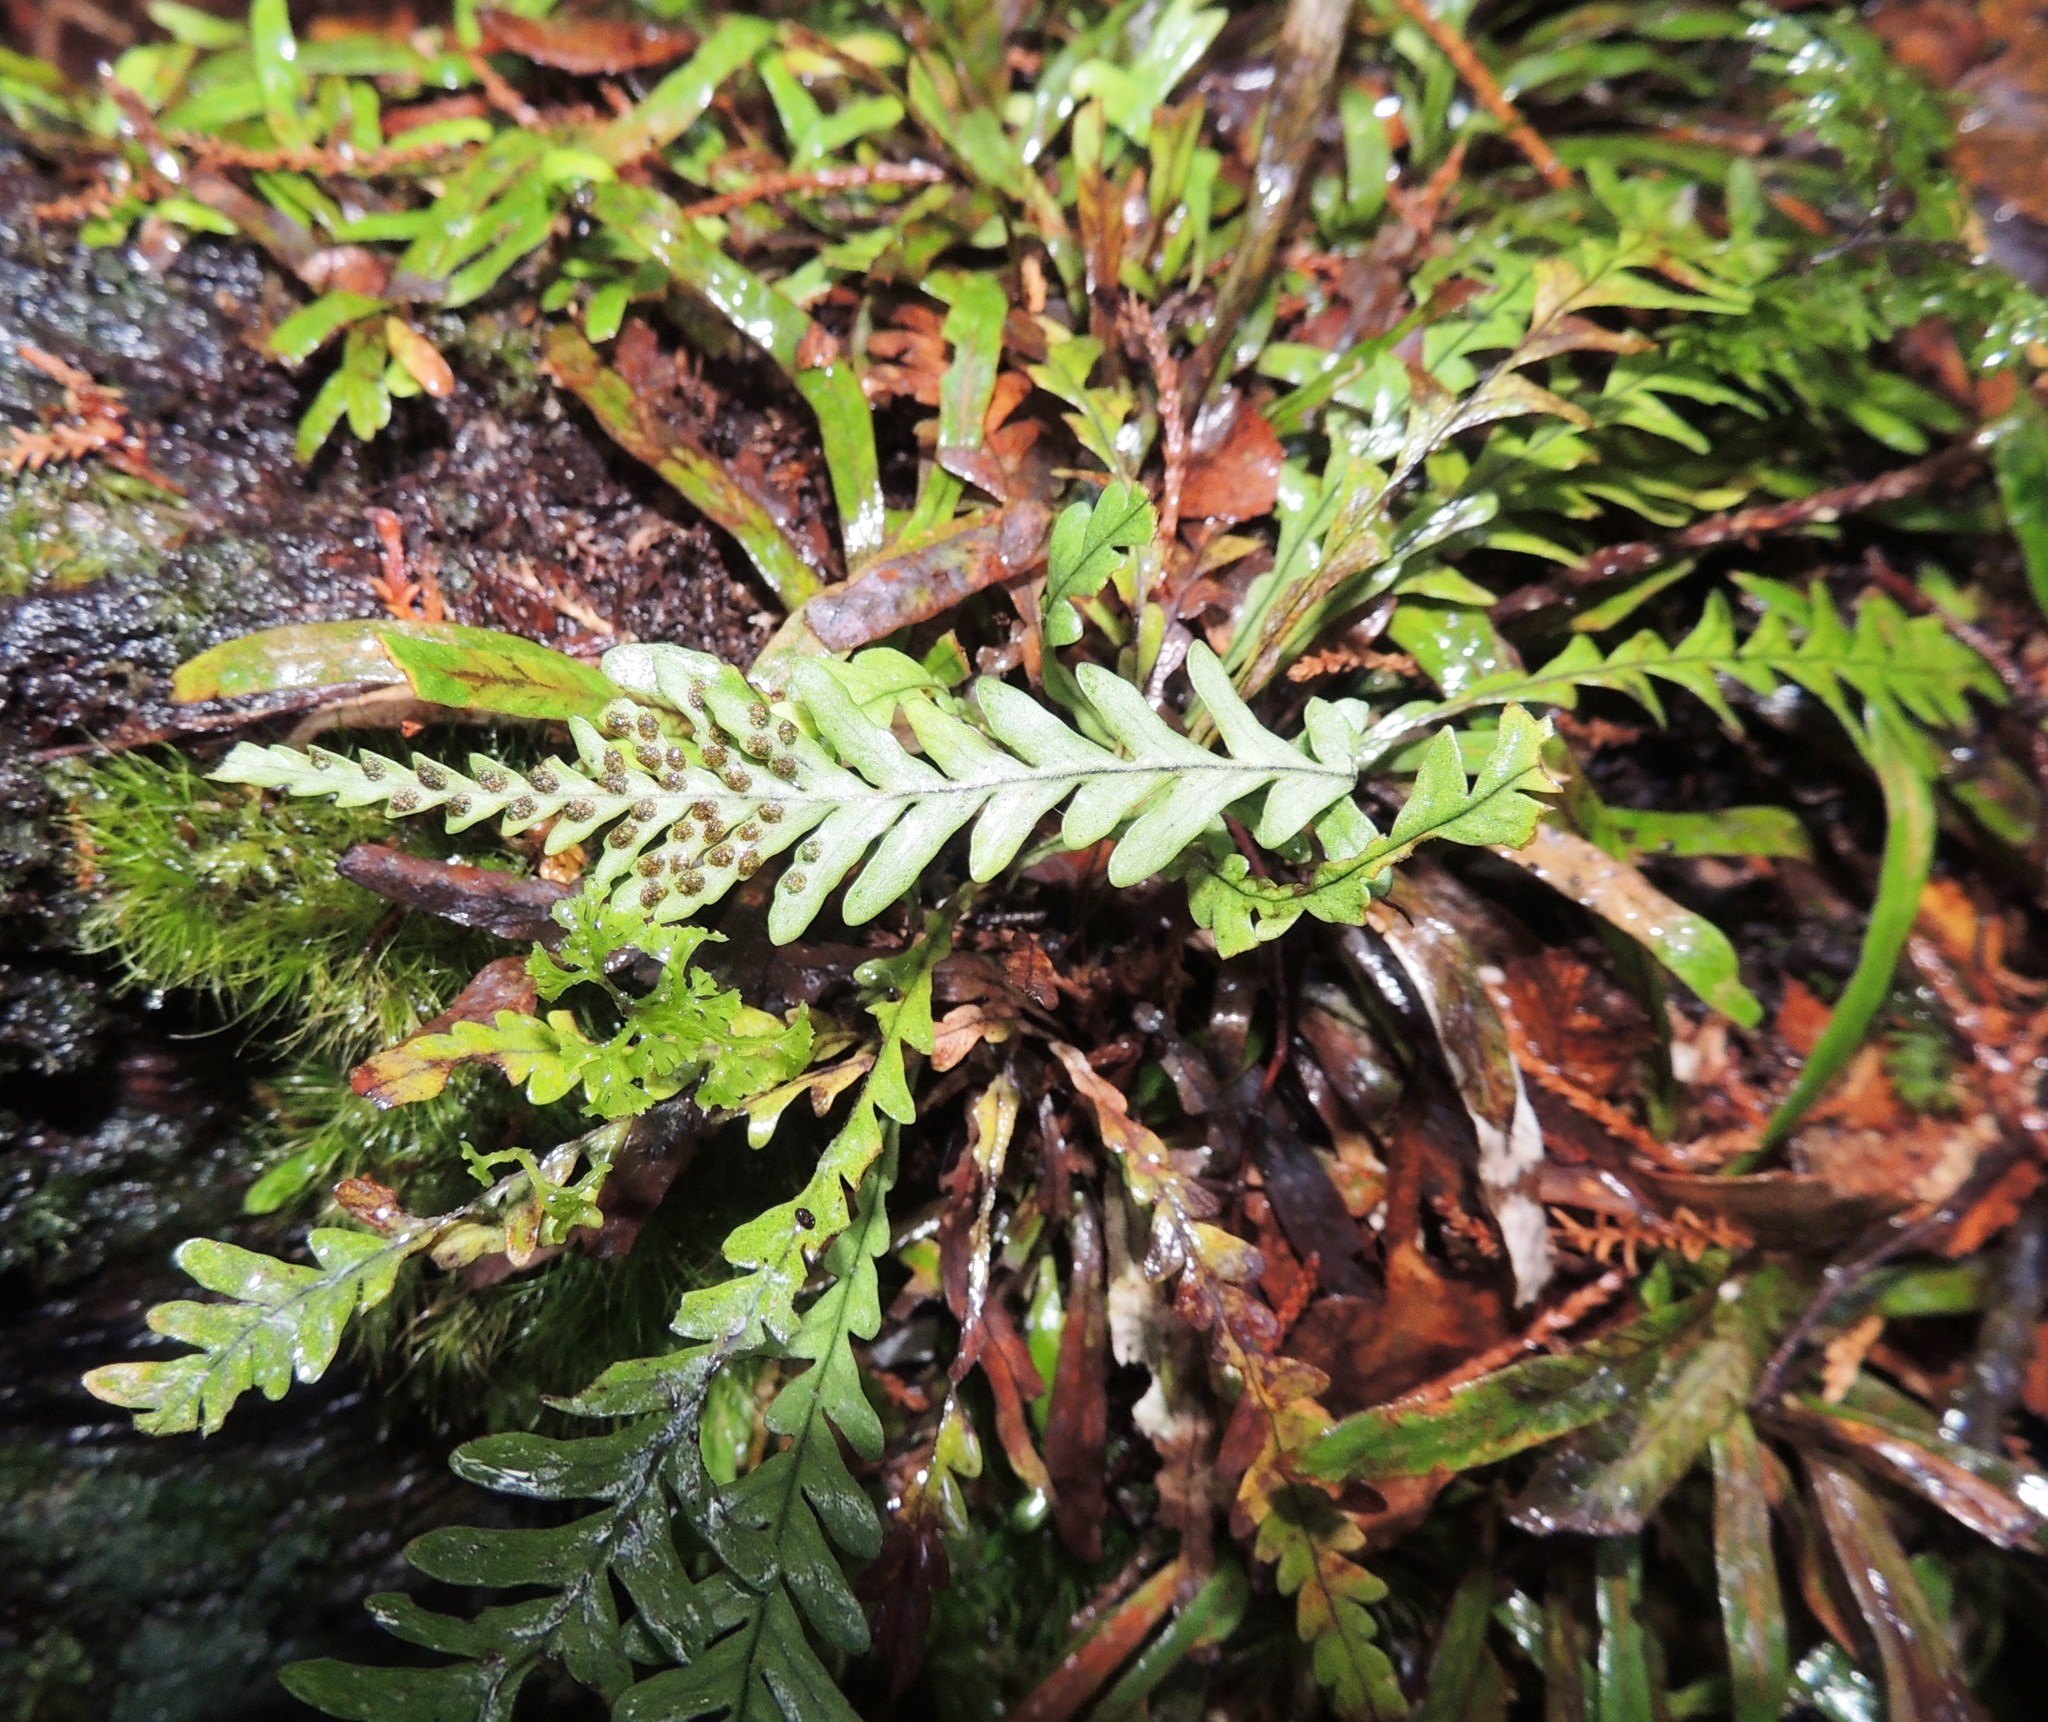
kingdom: Plantae
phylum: Tracheophyta
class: Polypodiopsida
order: Polypodiales
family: Polypodiaceae
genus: Notogrammitis
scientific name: Notogrammitis heterophylla
